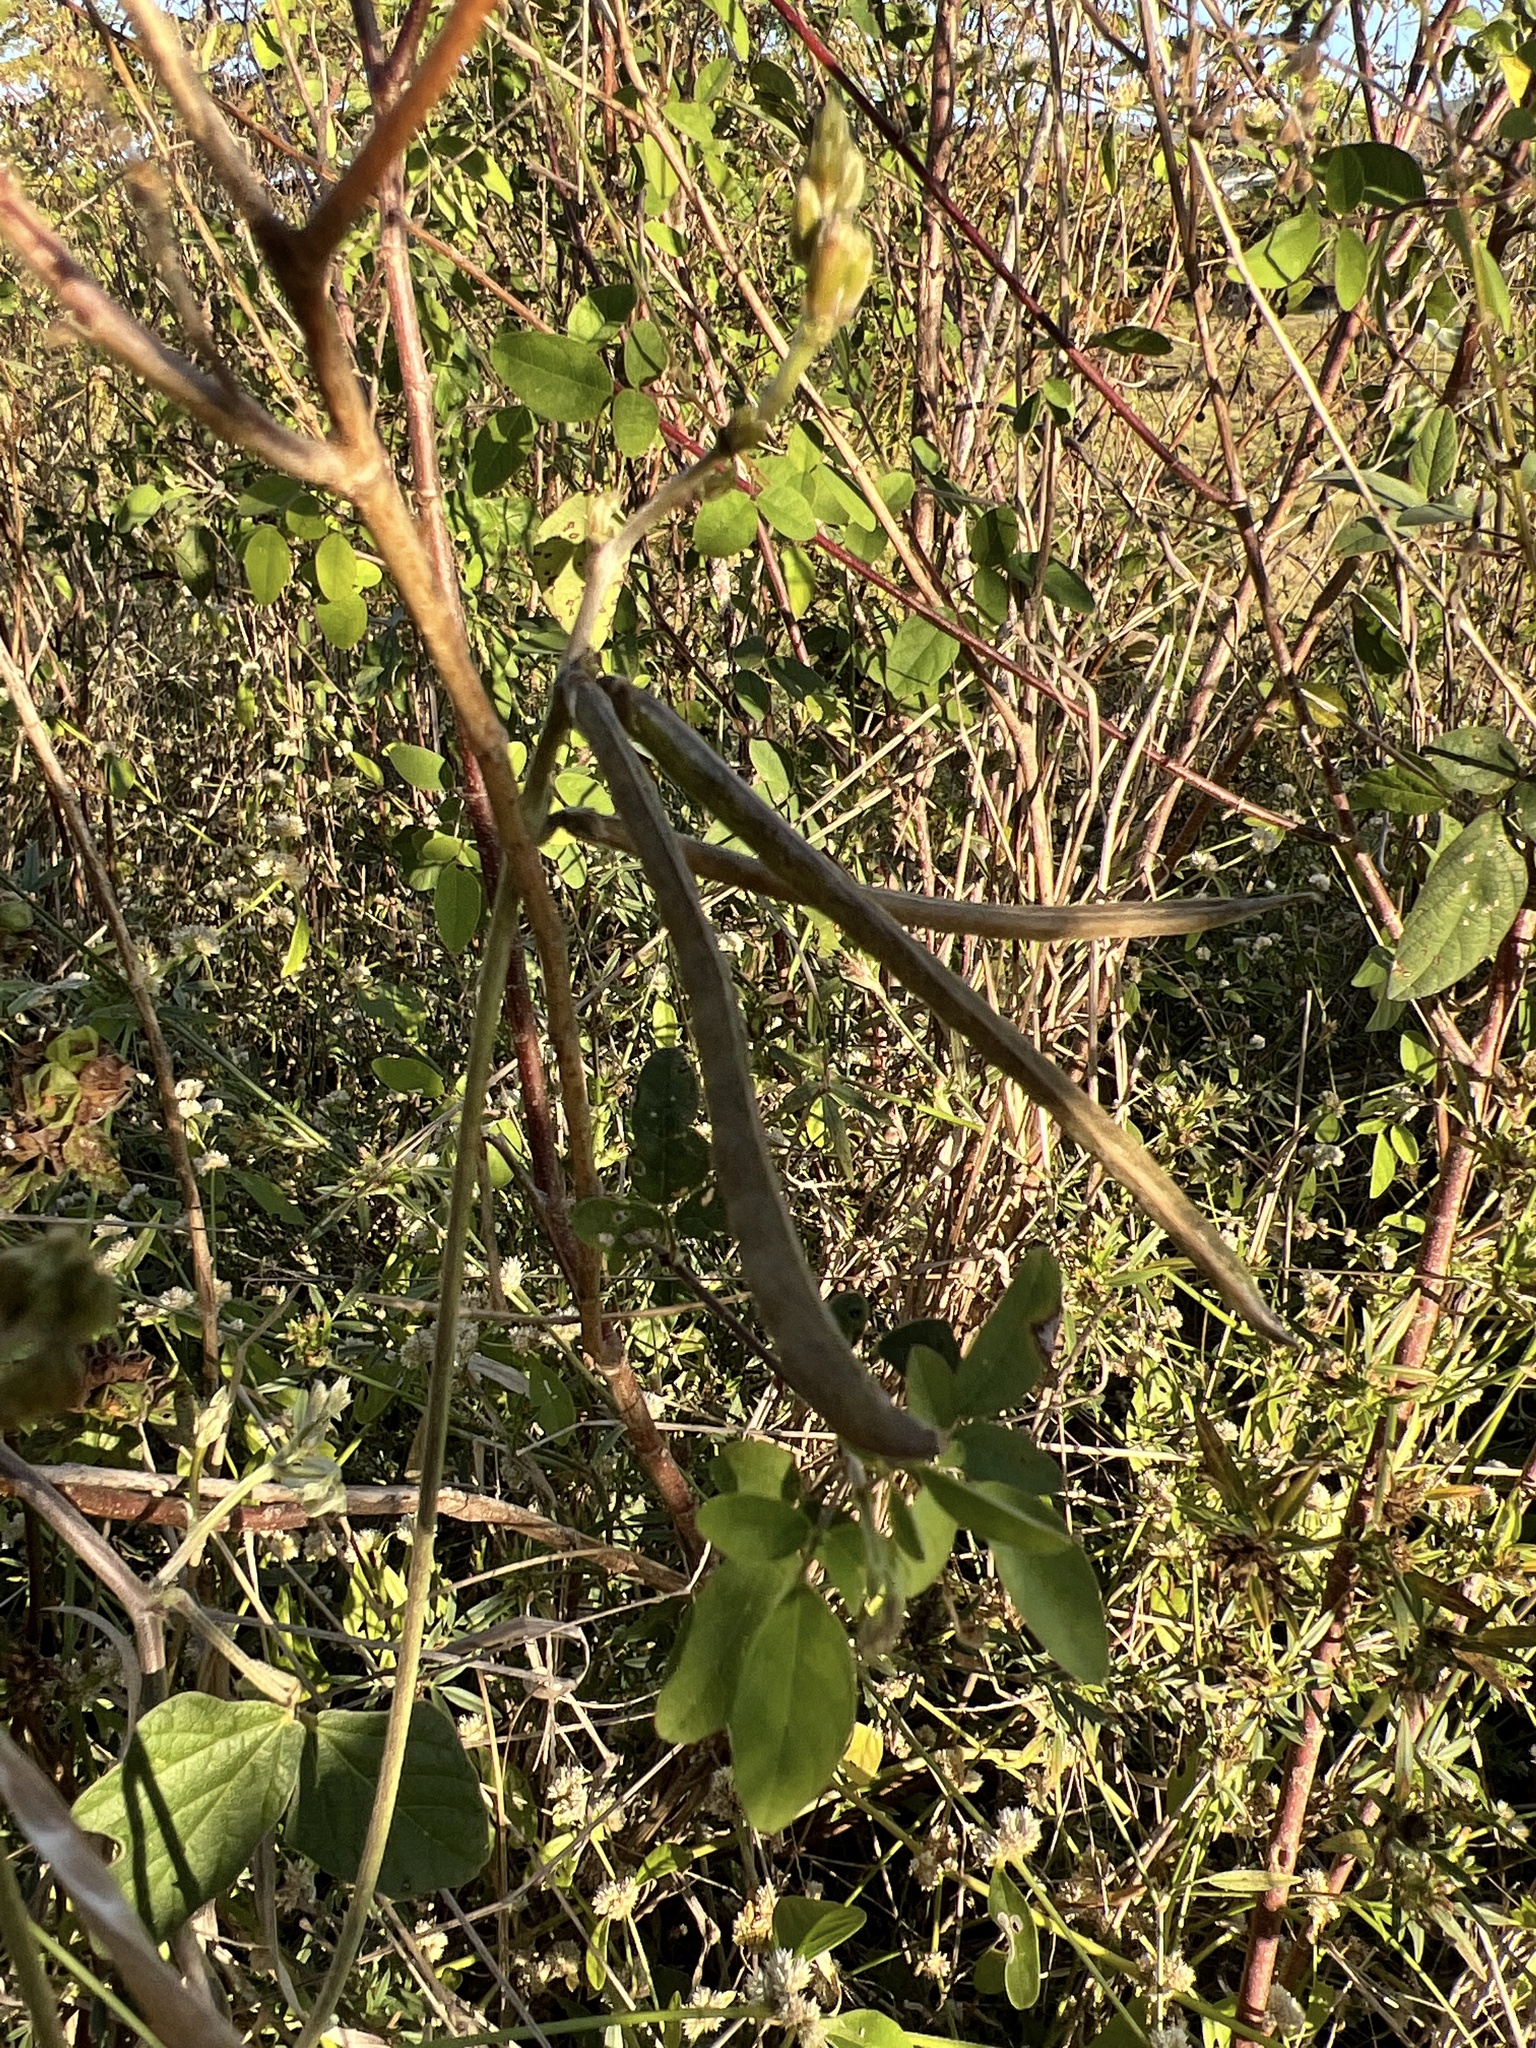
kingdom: Plantae
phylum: Tracheophyta
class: Magnoliopsida
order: Fabales
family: Fabaceae
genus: Macroptilium
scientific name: Macroptilium atropurpureum
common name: Purple bushbean
